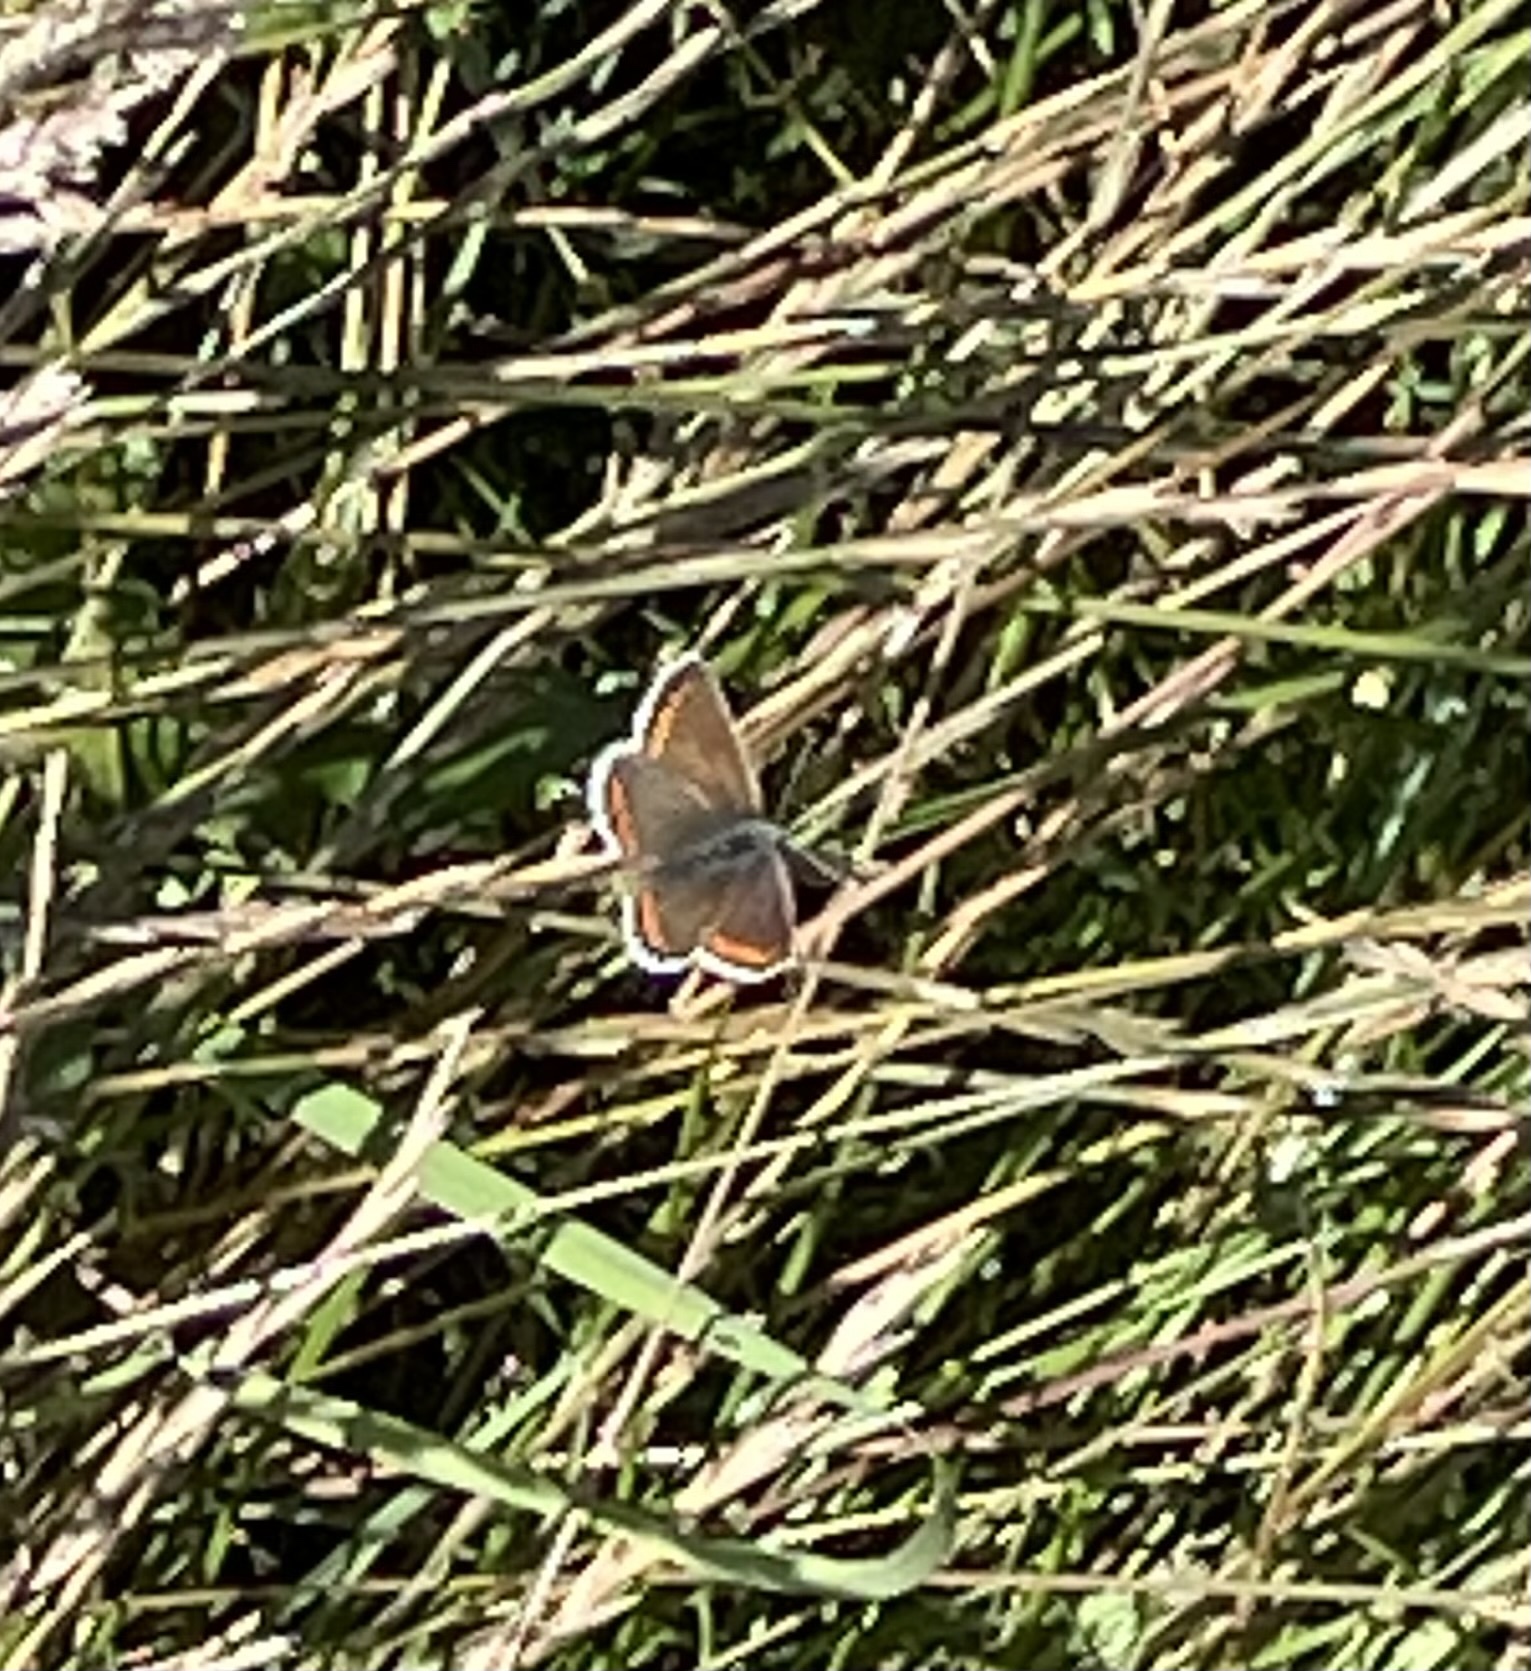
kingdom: Animalia
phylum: Arthropoda
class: Insecta
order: Lepidoptera
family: Lycaenidae
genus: Aricia
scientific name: Aricia agestis
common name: Brown argus
